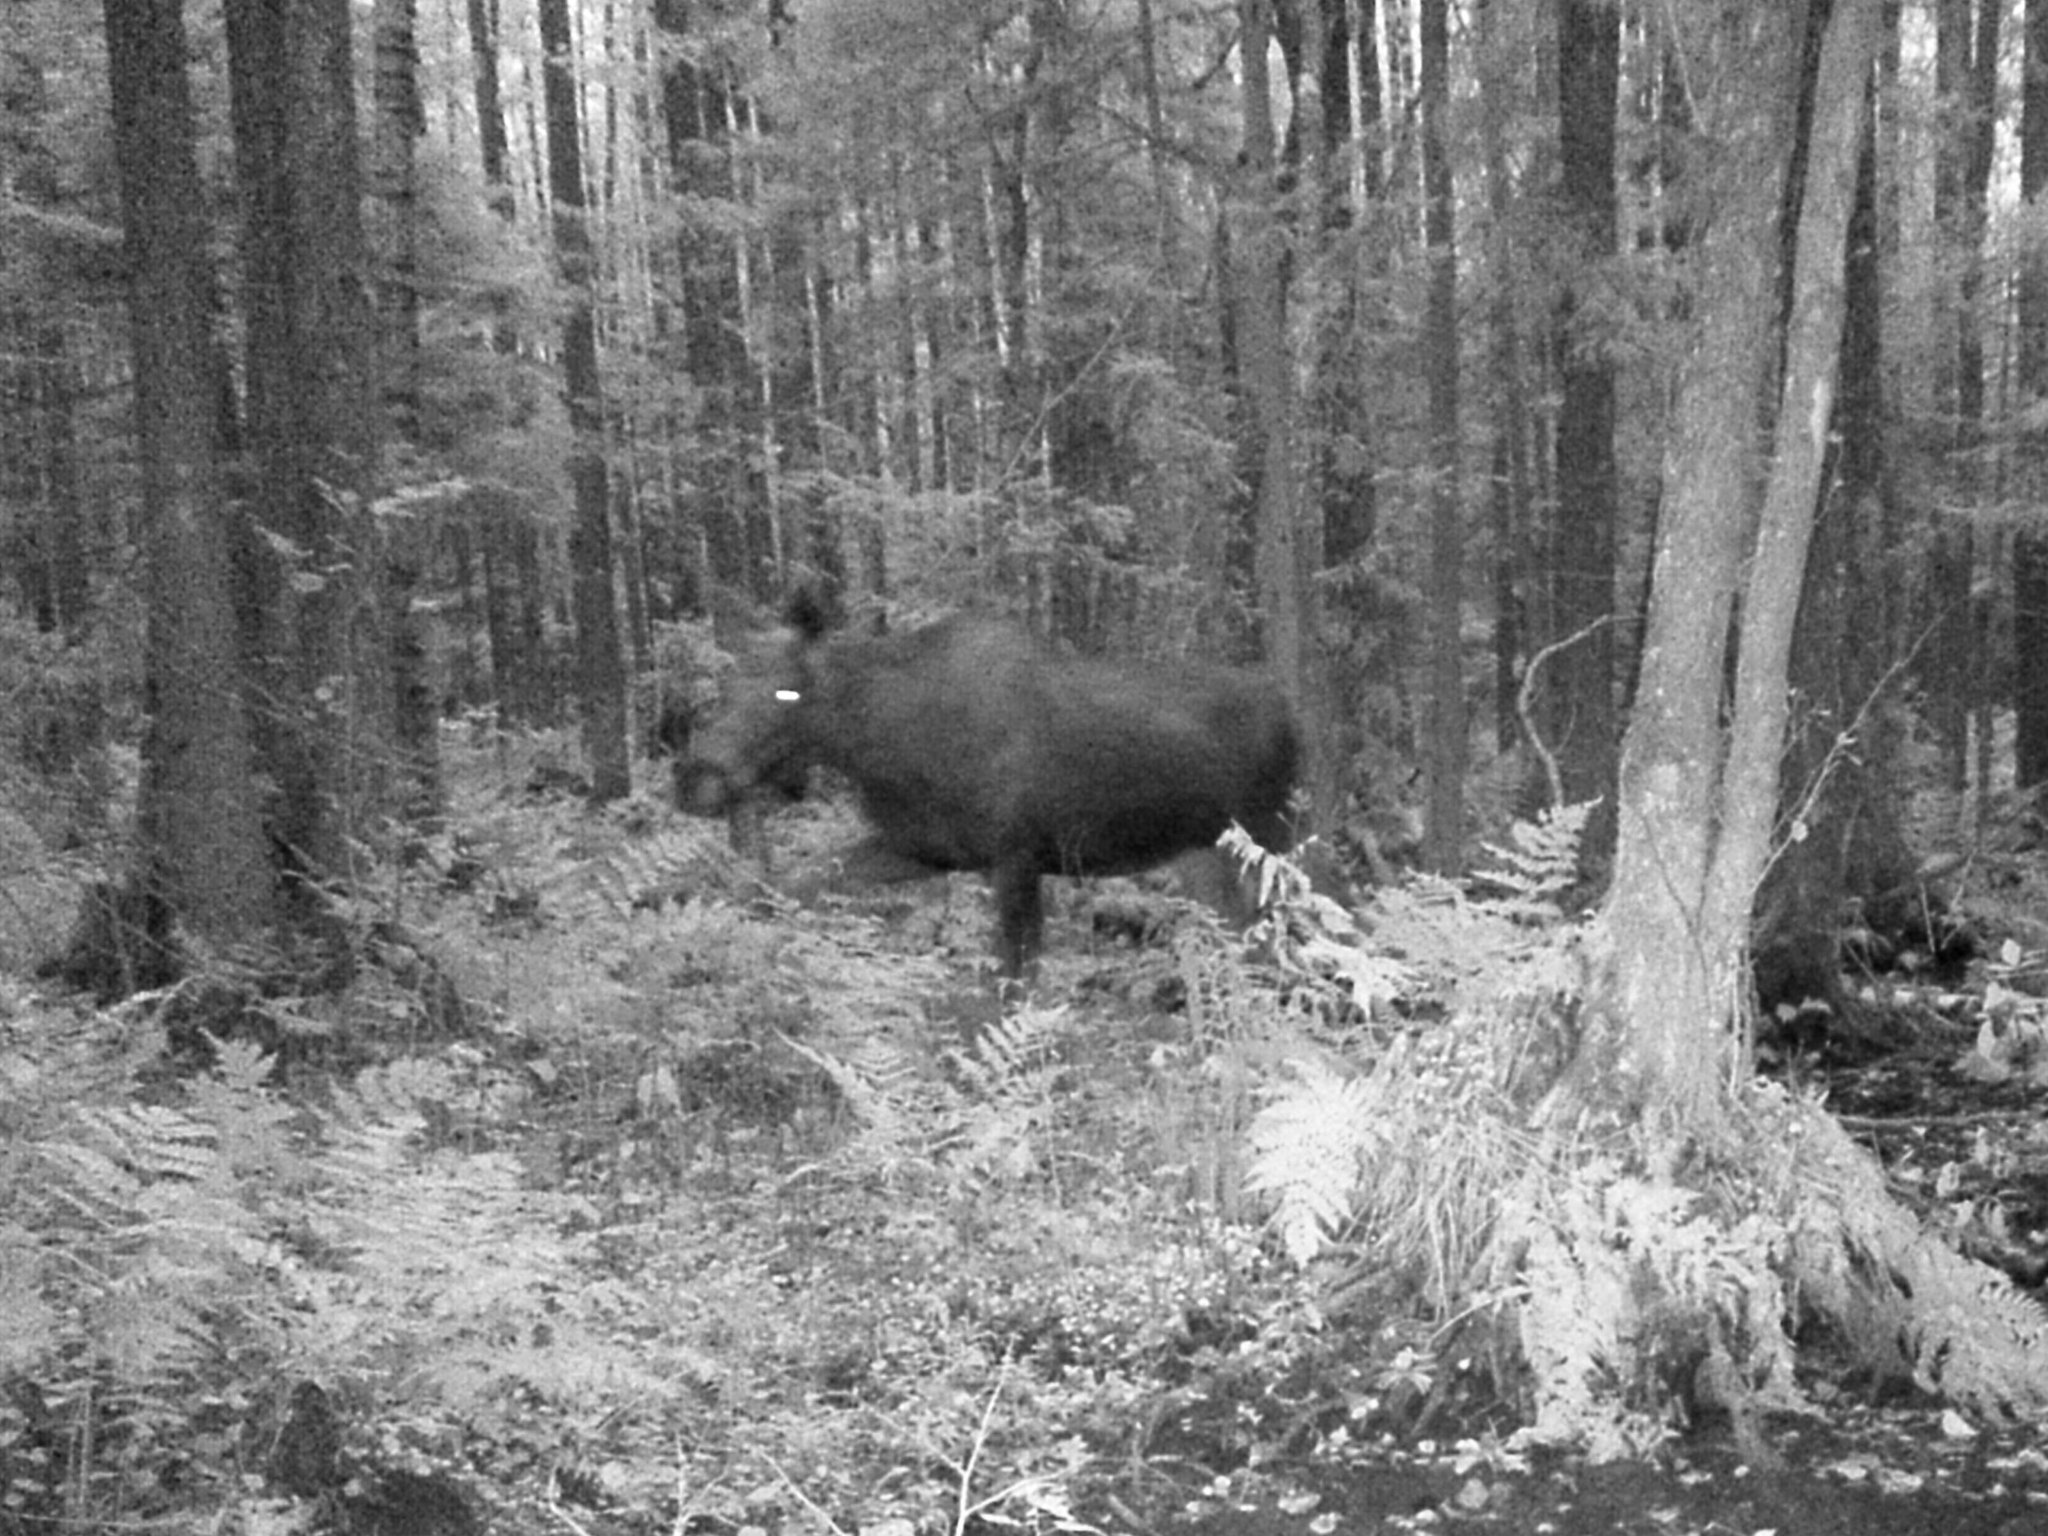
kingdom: Animalia
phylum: Chordata
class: Mammalia
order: Artiodactyla
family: Cervidae
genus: Alces
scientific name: Alces alces
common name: Moose
